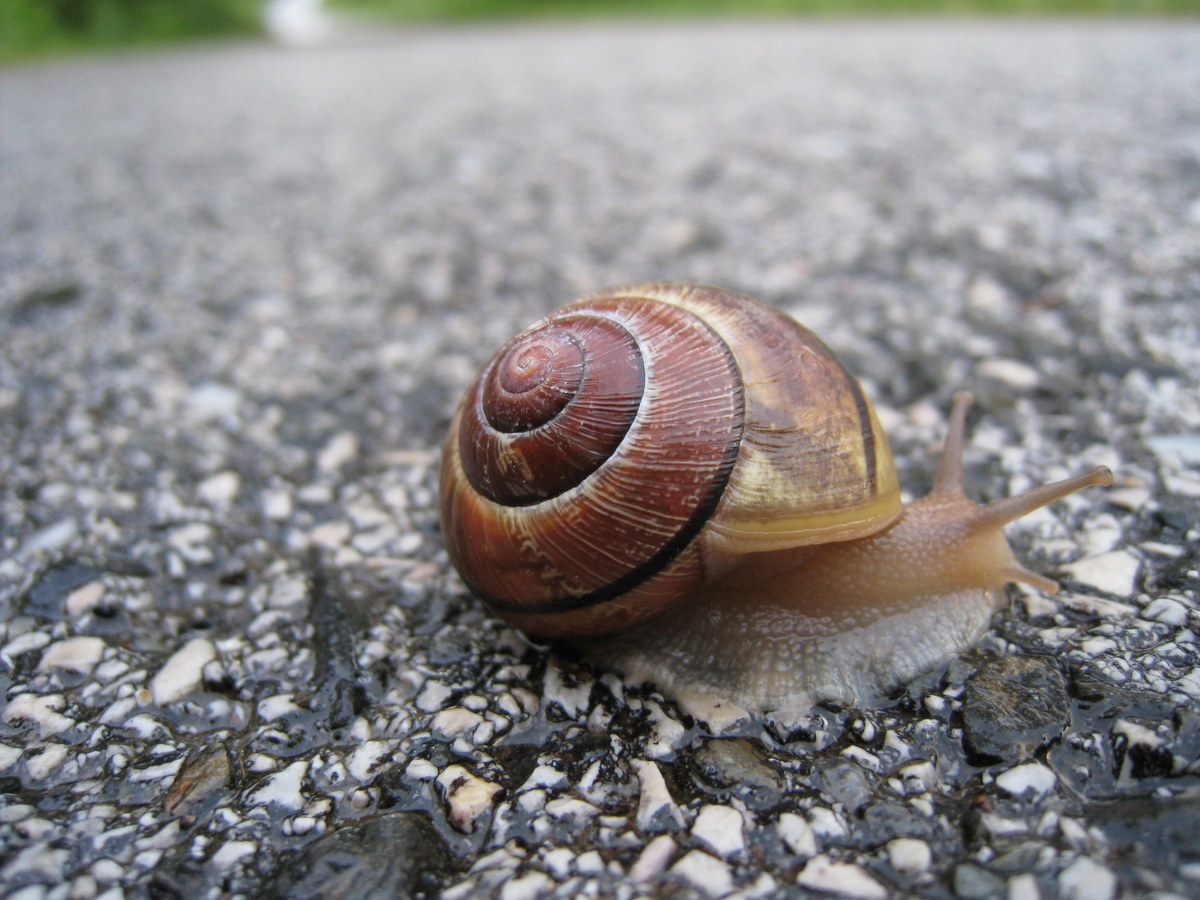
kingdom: Animalia
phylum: Mollusca
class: Gastropoda
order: Stylommatophora
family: Helicidae
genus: Cepaea
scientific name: Cepaea nemoralis
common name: Grovesnail
